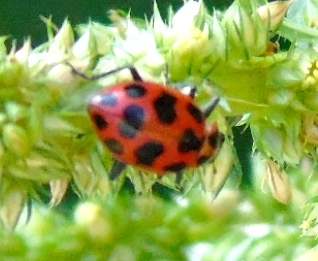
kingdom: Animalia
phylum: Arthropoda
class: Insecta
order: Coleoptera
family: Coccinellidae
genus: Coleomegilla
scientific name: Coleomegilla maculata
